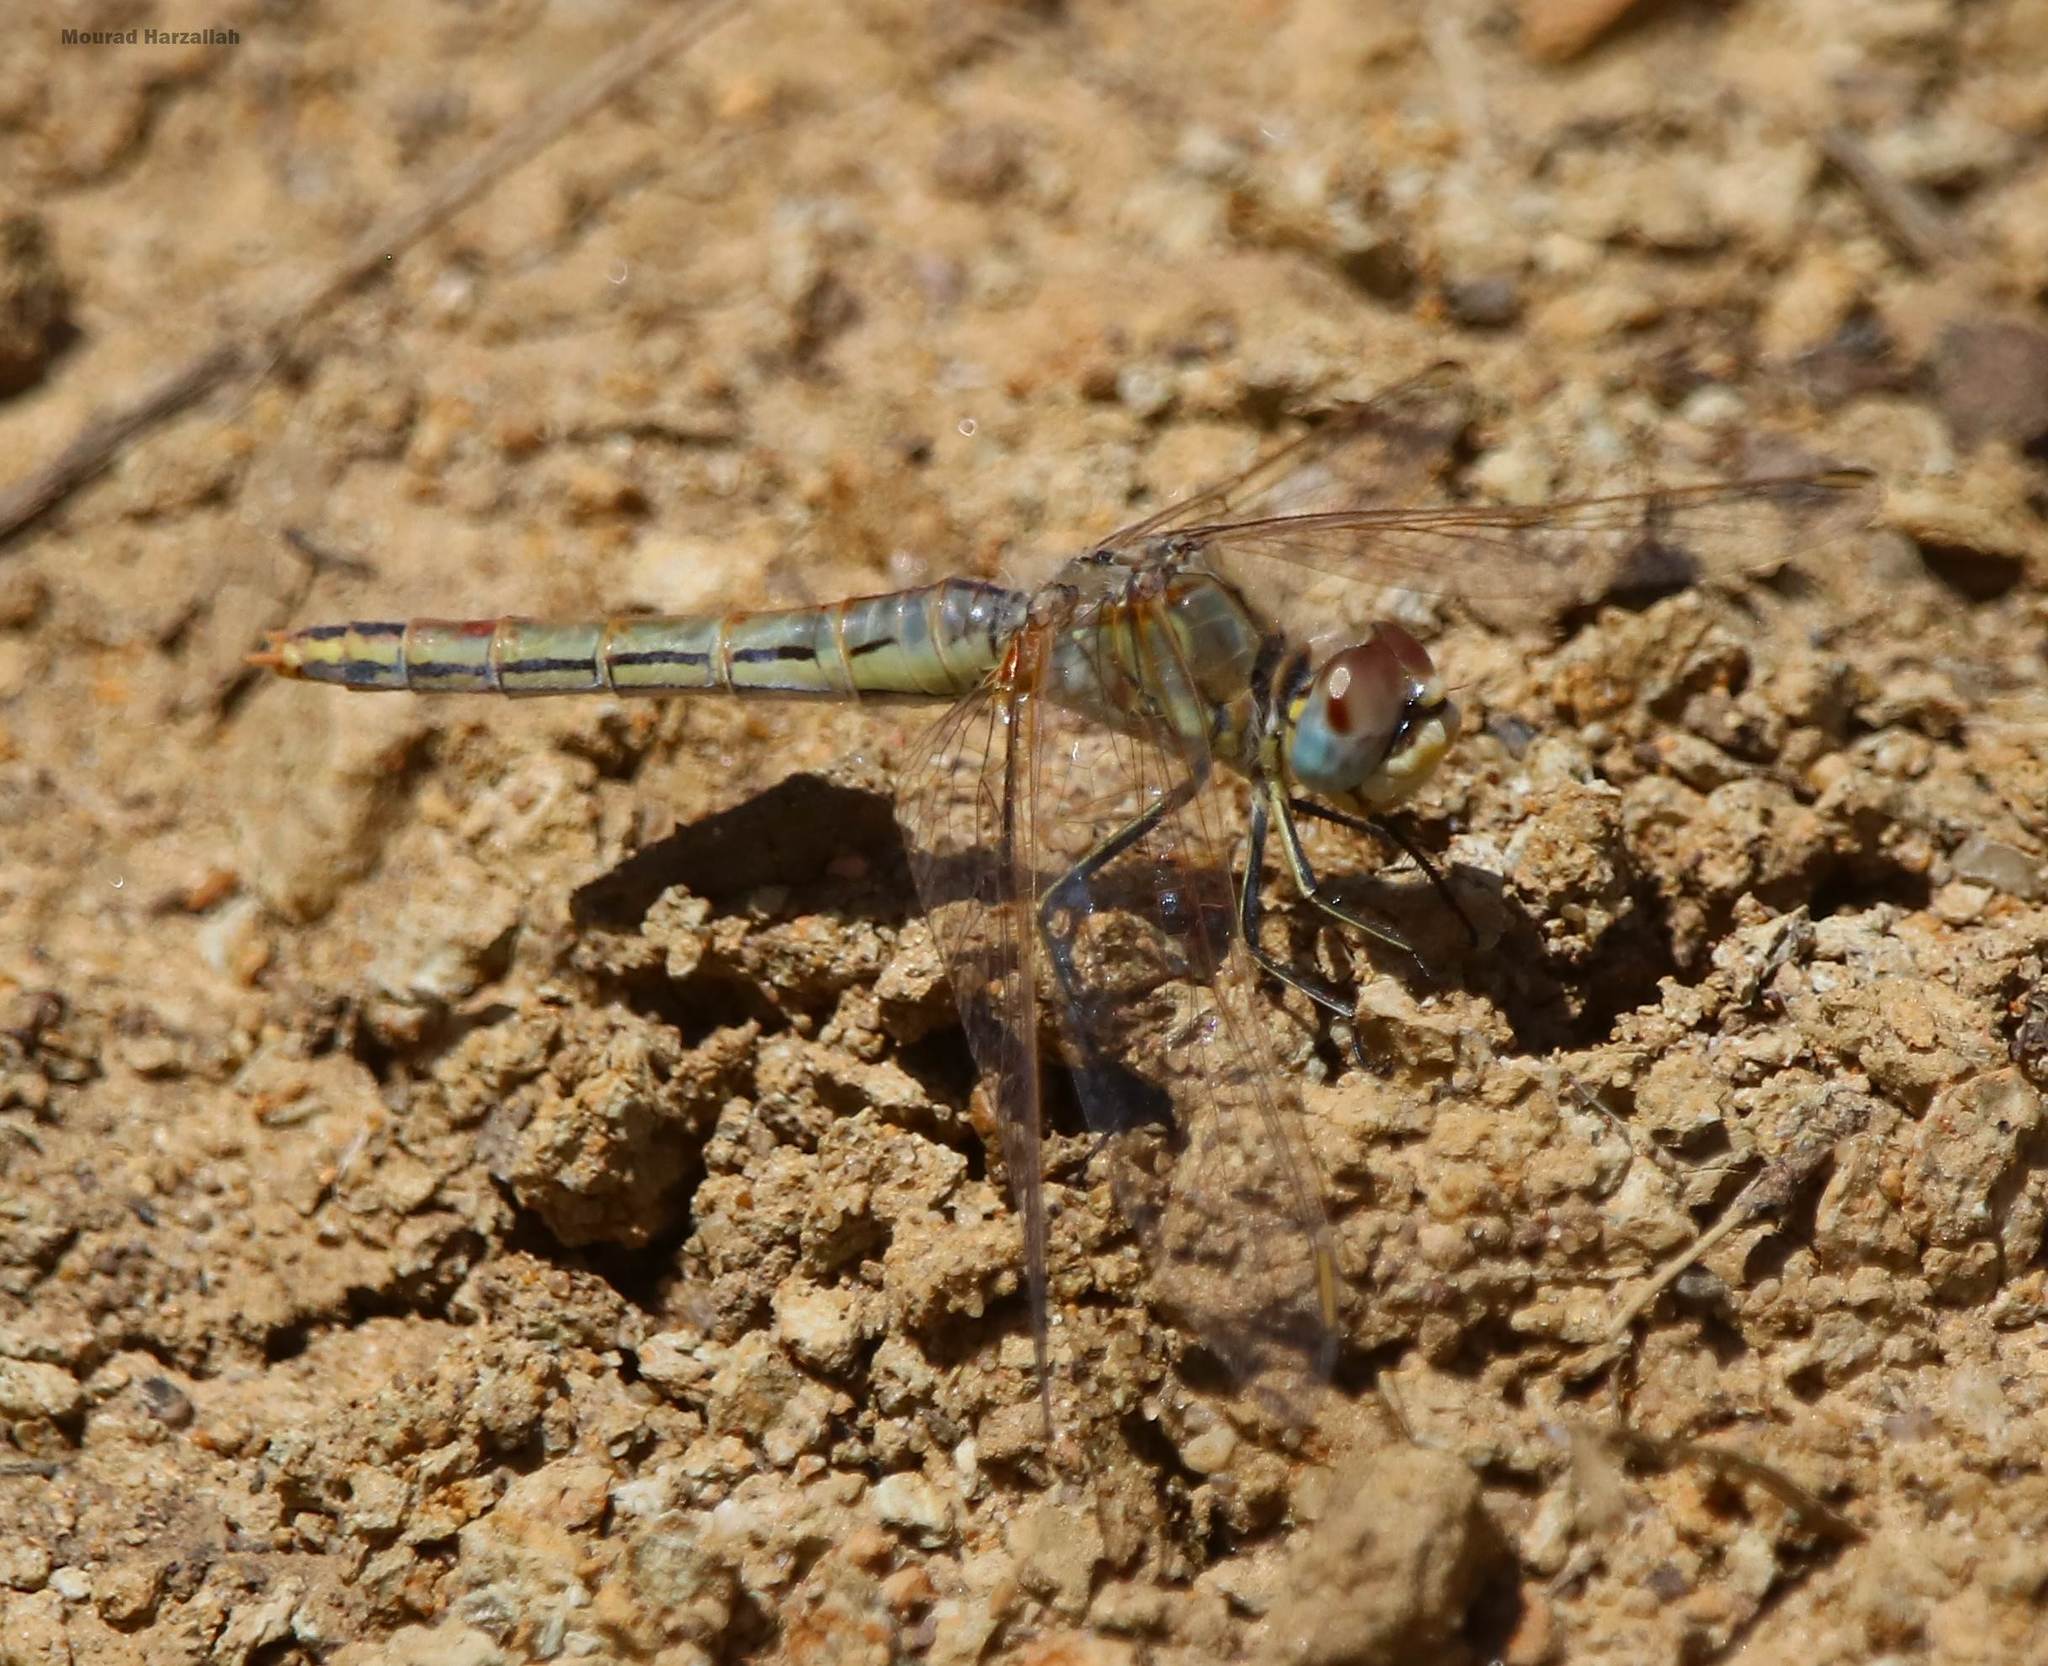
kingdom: Animalia
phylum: Arthropoda
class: Insecta
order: Odonata
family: Libellulidae
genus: Sympetrum
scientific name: Sympetrum fonscolombii
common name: Red-veined darter
